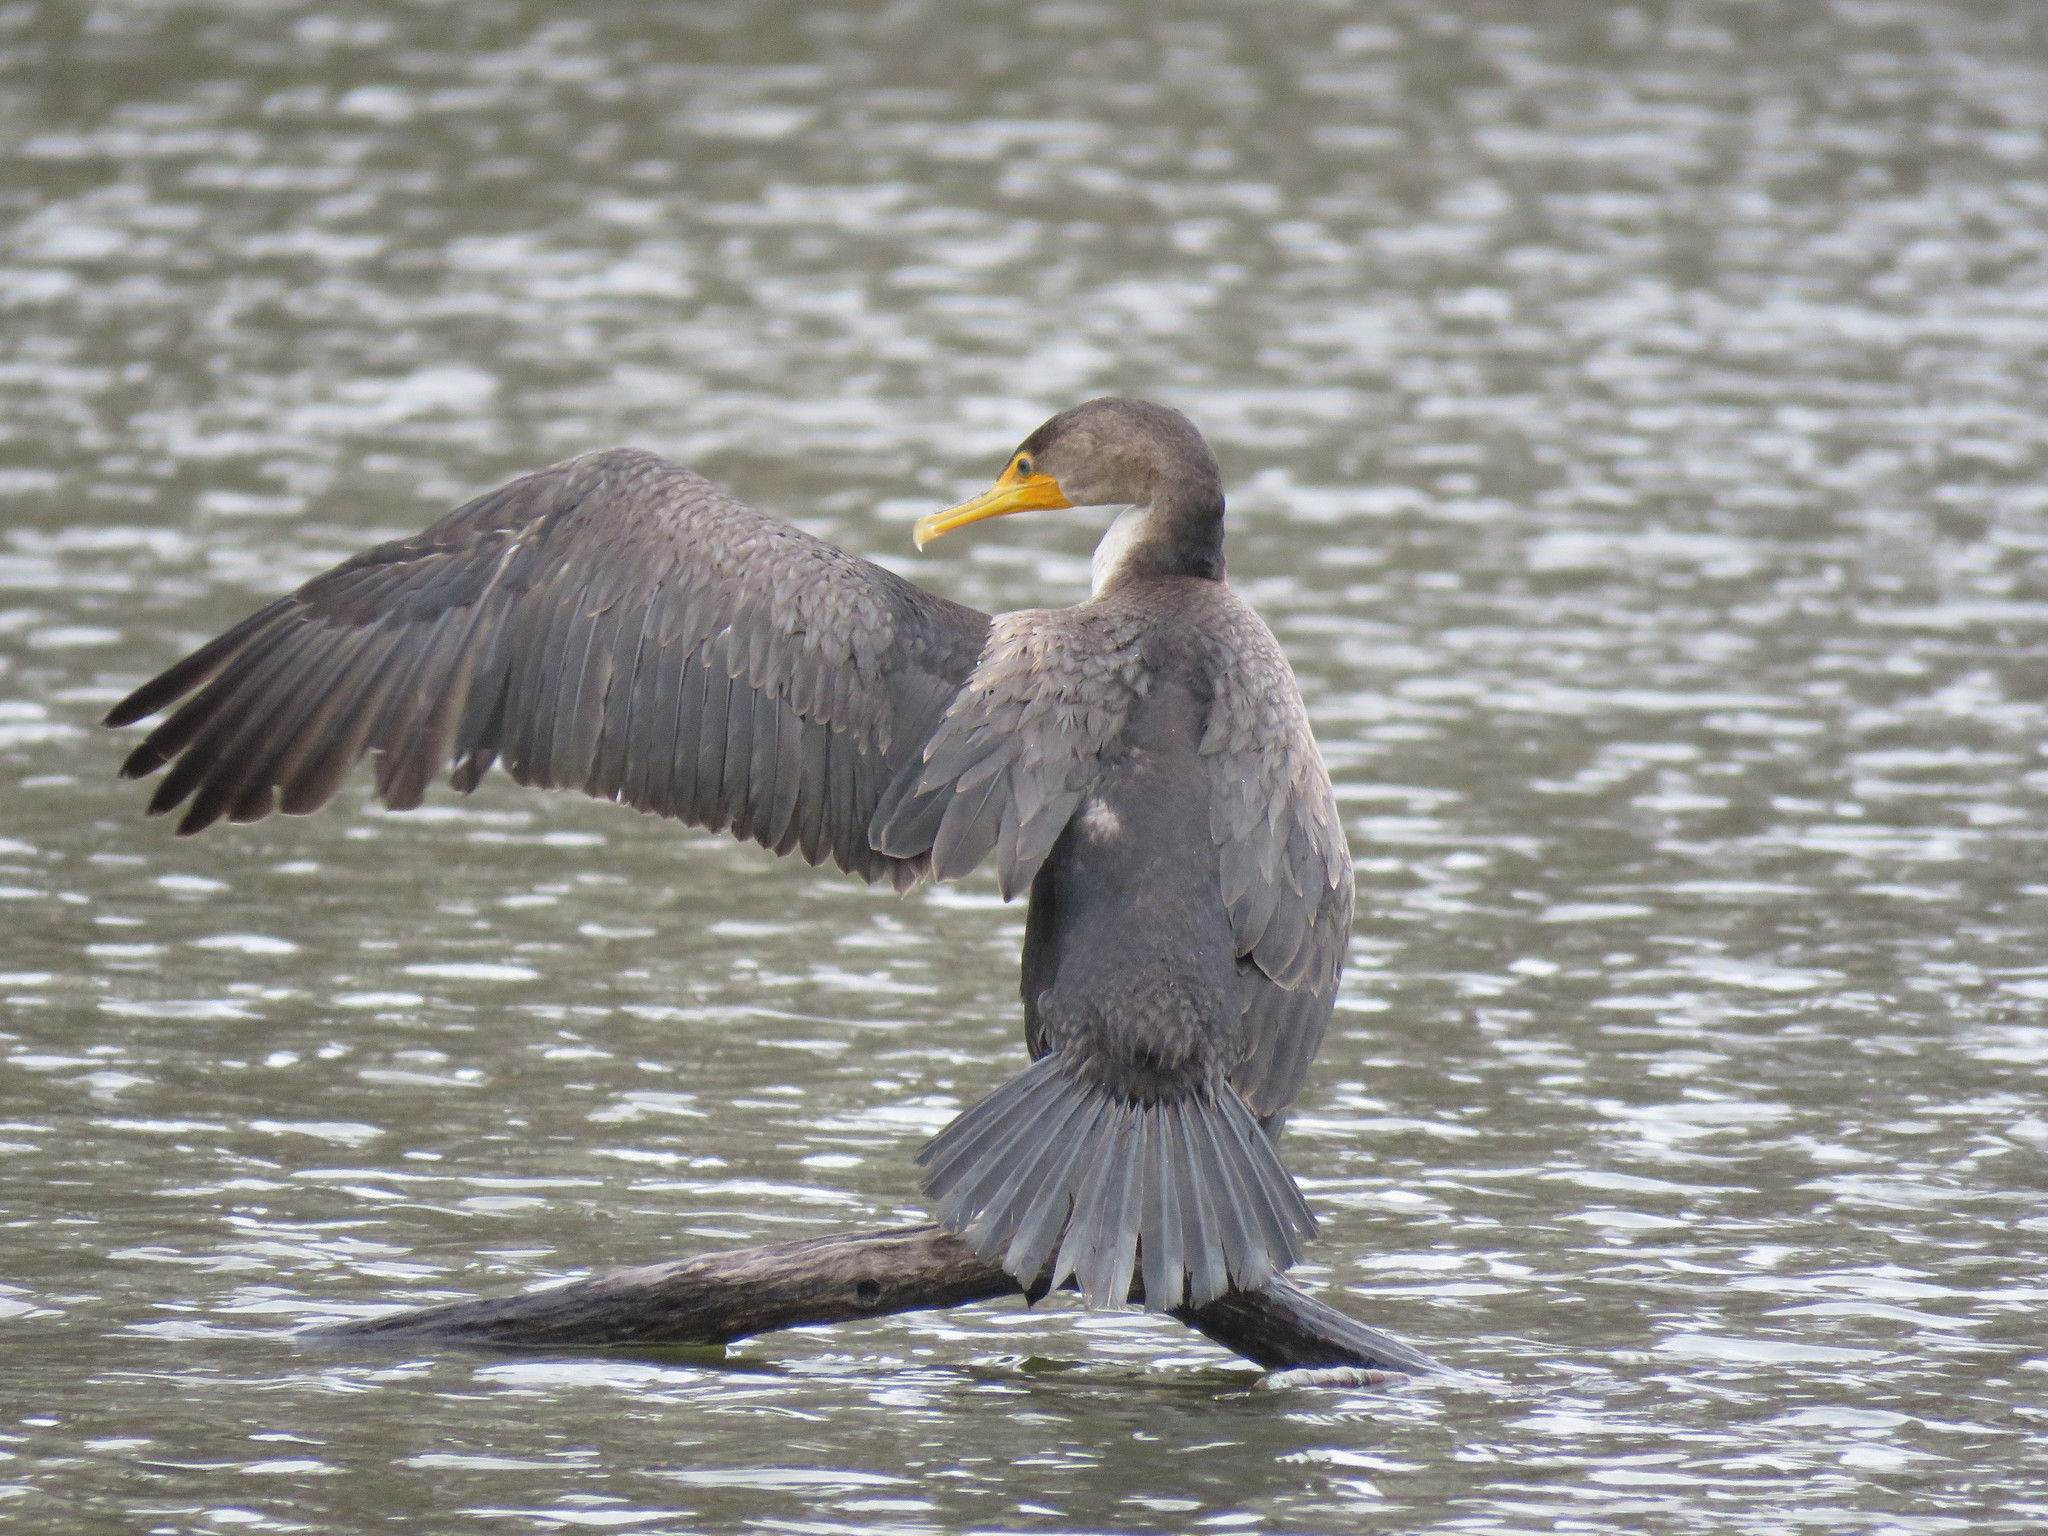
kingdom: Animalia
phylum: Chordata
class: Aves
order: Suliformes
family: Phalacrocoracidae
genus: Phalacrocorax
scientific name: Phalacrocorax auritus
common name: Double-crested cormorant
